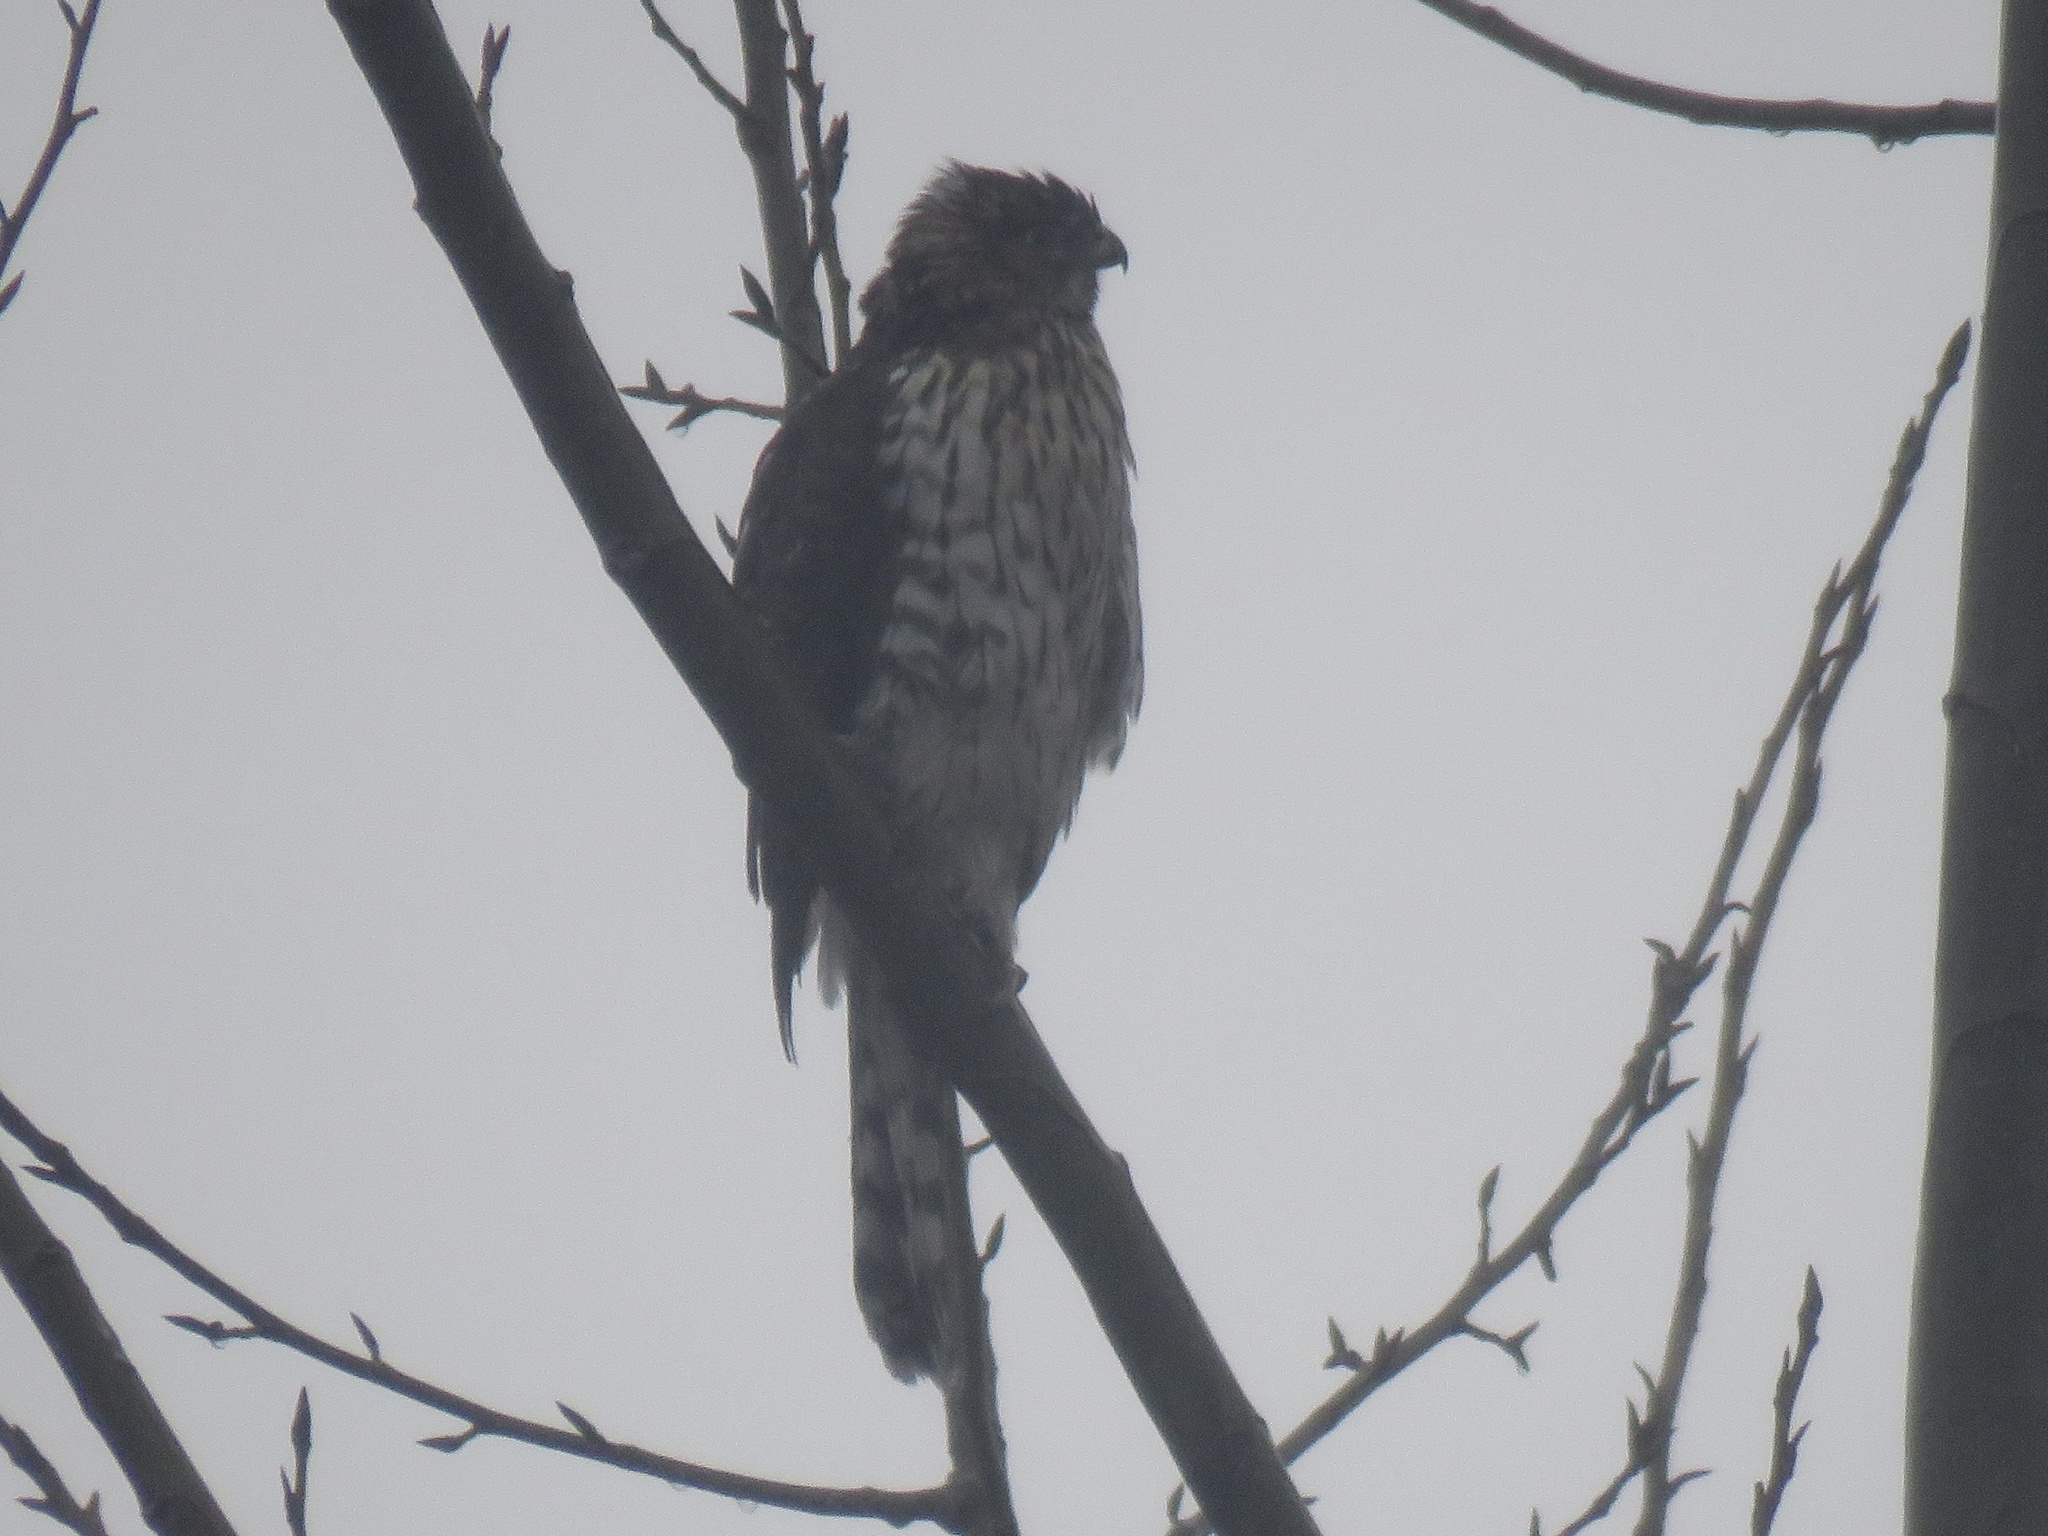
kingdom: Animalia
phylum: Chordata
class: Aves
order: Accipitriformes
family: Accipitridae
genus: Accipiter
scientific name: Accipiter cooperii
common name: Cooper's hawk
